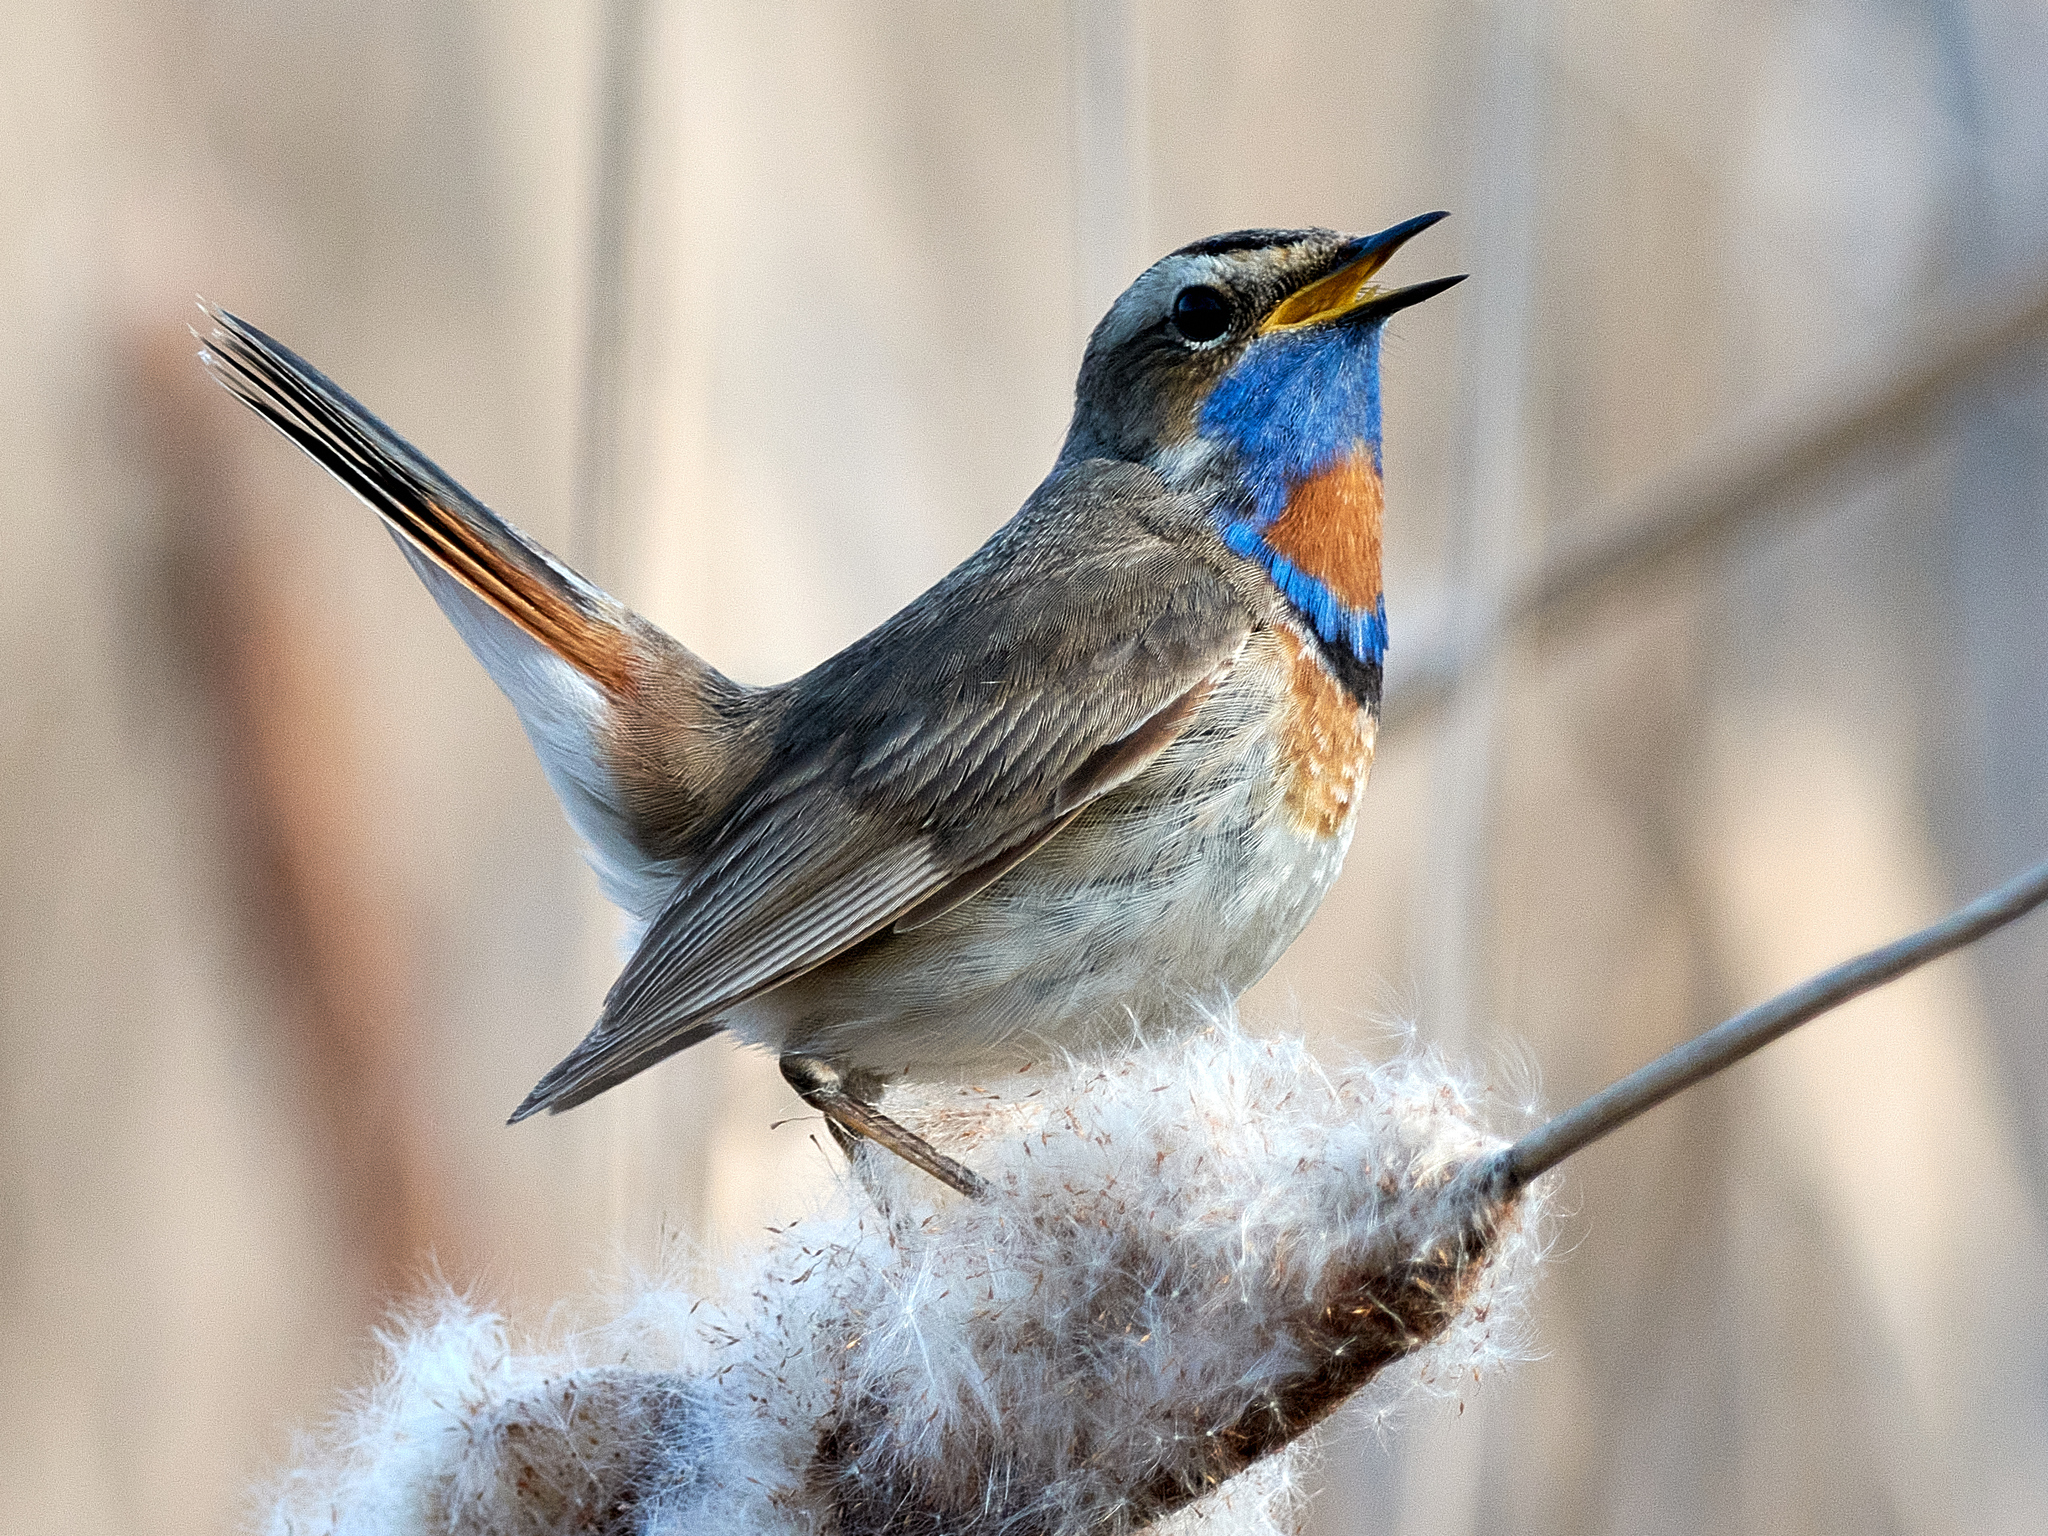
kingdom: Animalia
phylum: Chordata
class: Aves
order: Passeriformes
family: Muscicapidae
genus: Luscinia
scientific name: Luscinia svecica
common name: Bluethroat
